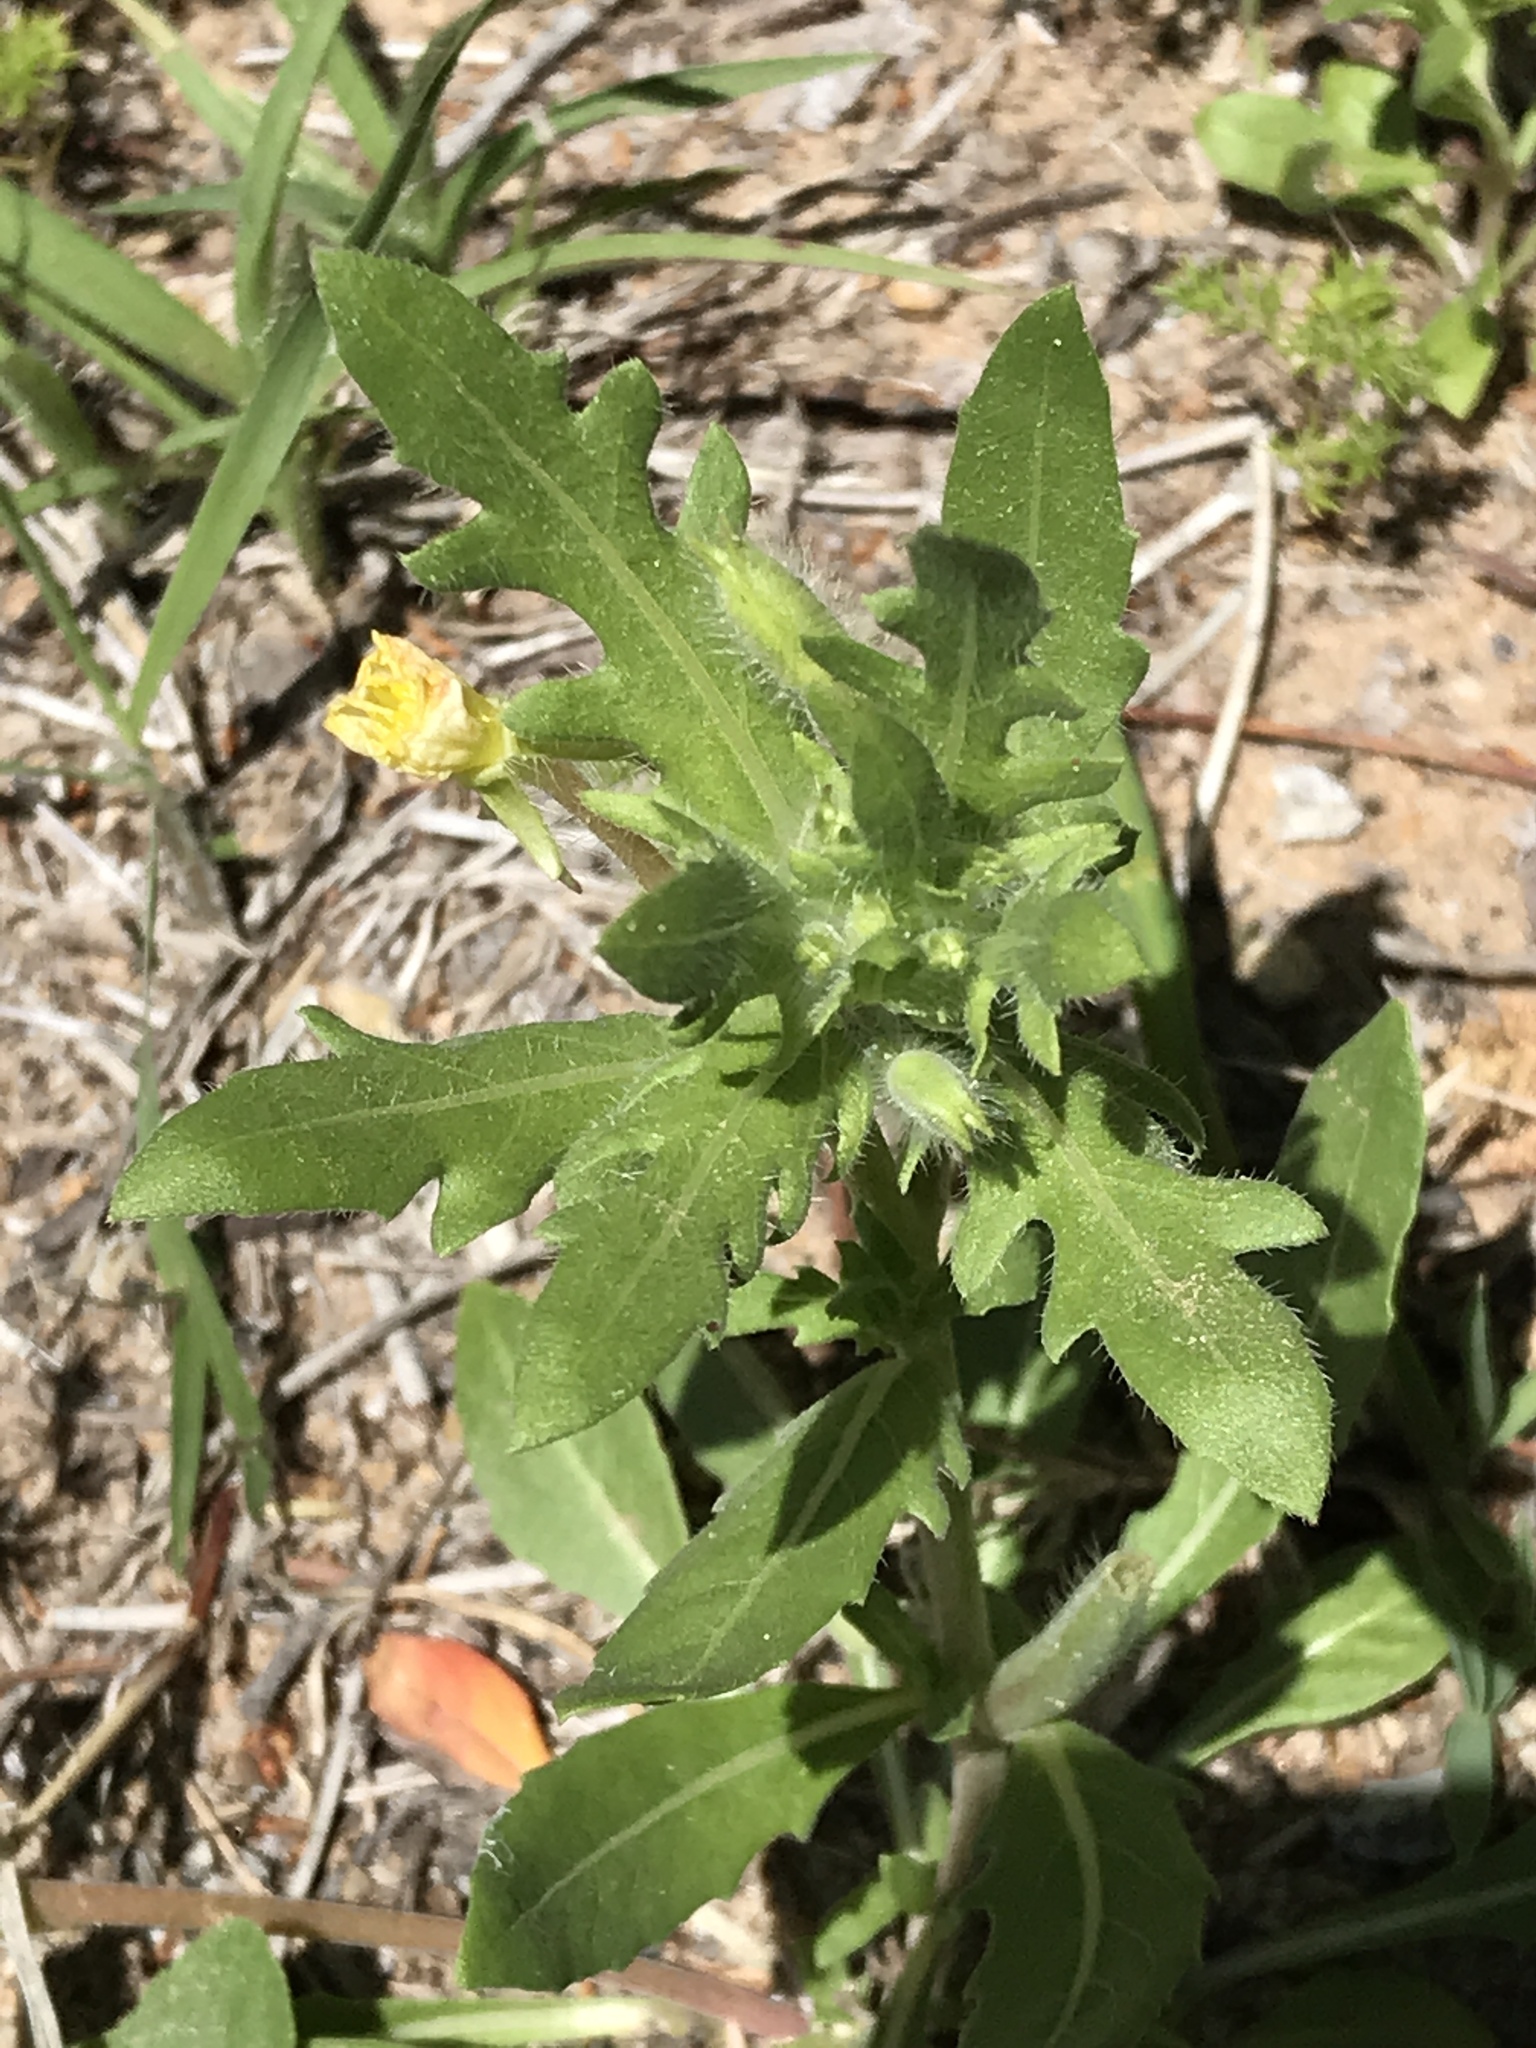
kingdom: Plantae
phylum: Tracheophyta
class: Magnoliopsida
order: Myrtales
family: Onagraceae
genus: Oenothera
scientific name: Oenothera laciniata
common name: Cut-leaved evening-primrose
